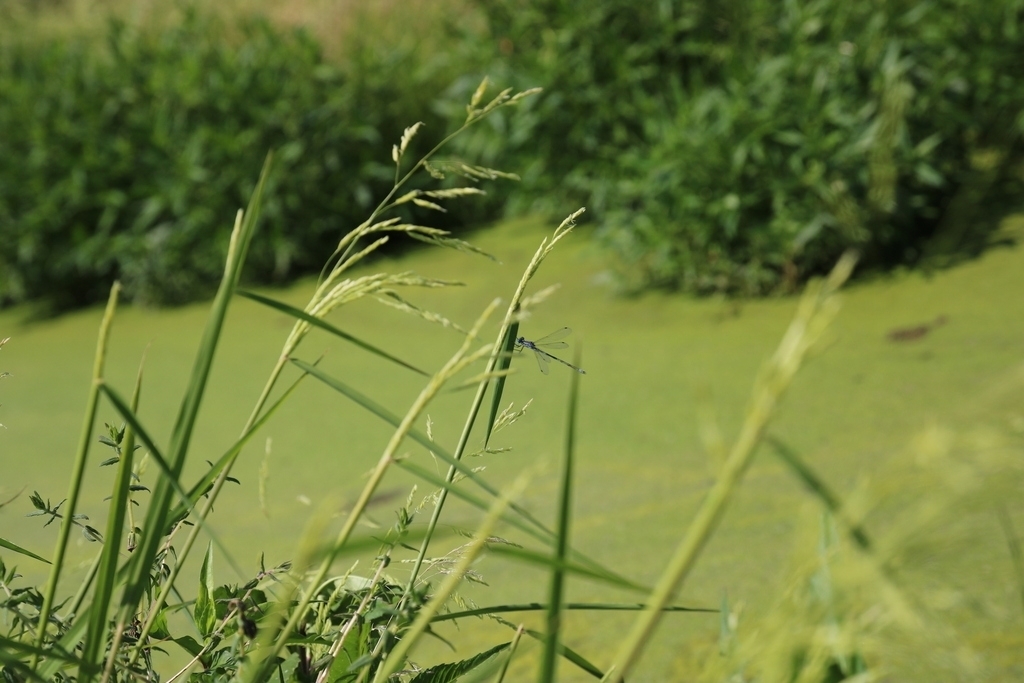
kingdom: Plantae
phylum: Tracheophyta
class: Liliopsida
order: Poales
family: Poaceae
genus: Leersia
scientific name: Leersia oryzoides
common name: Cut-grass
